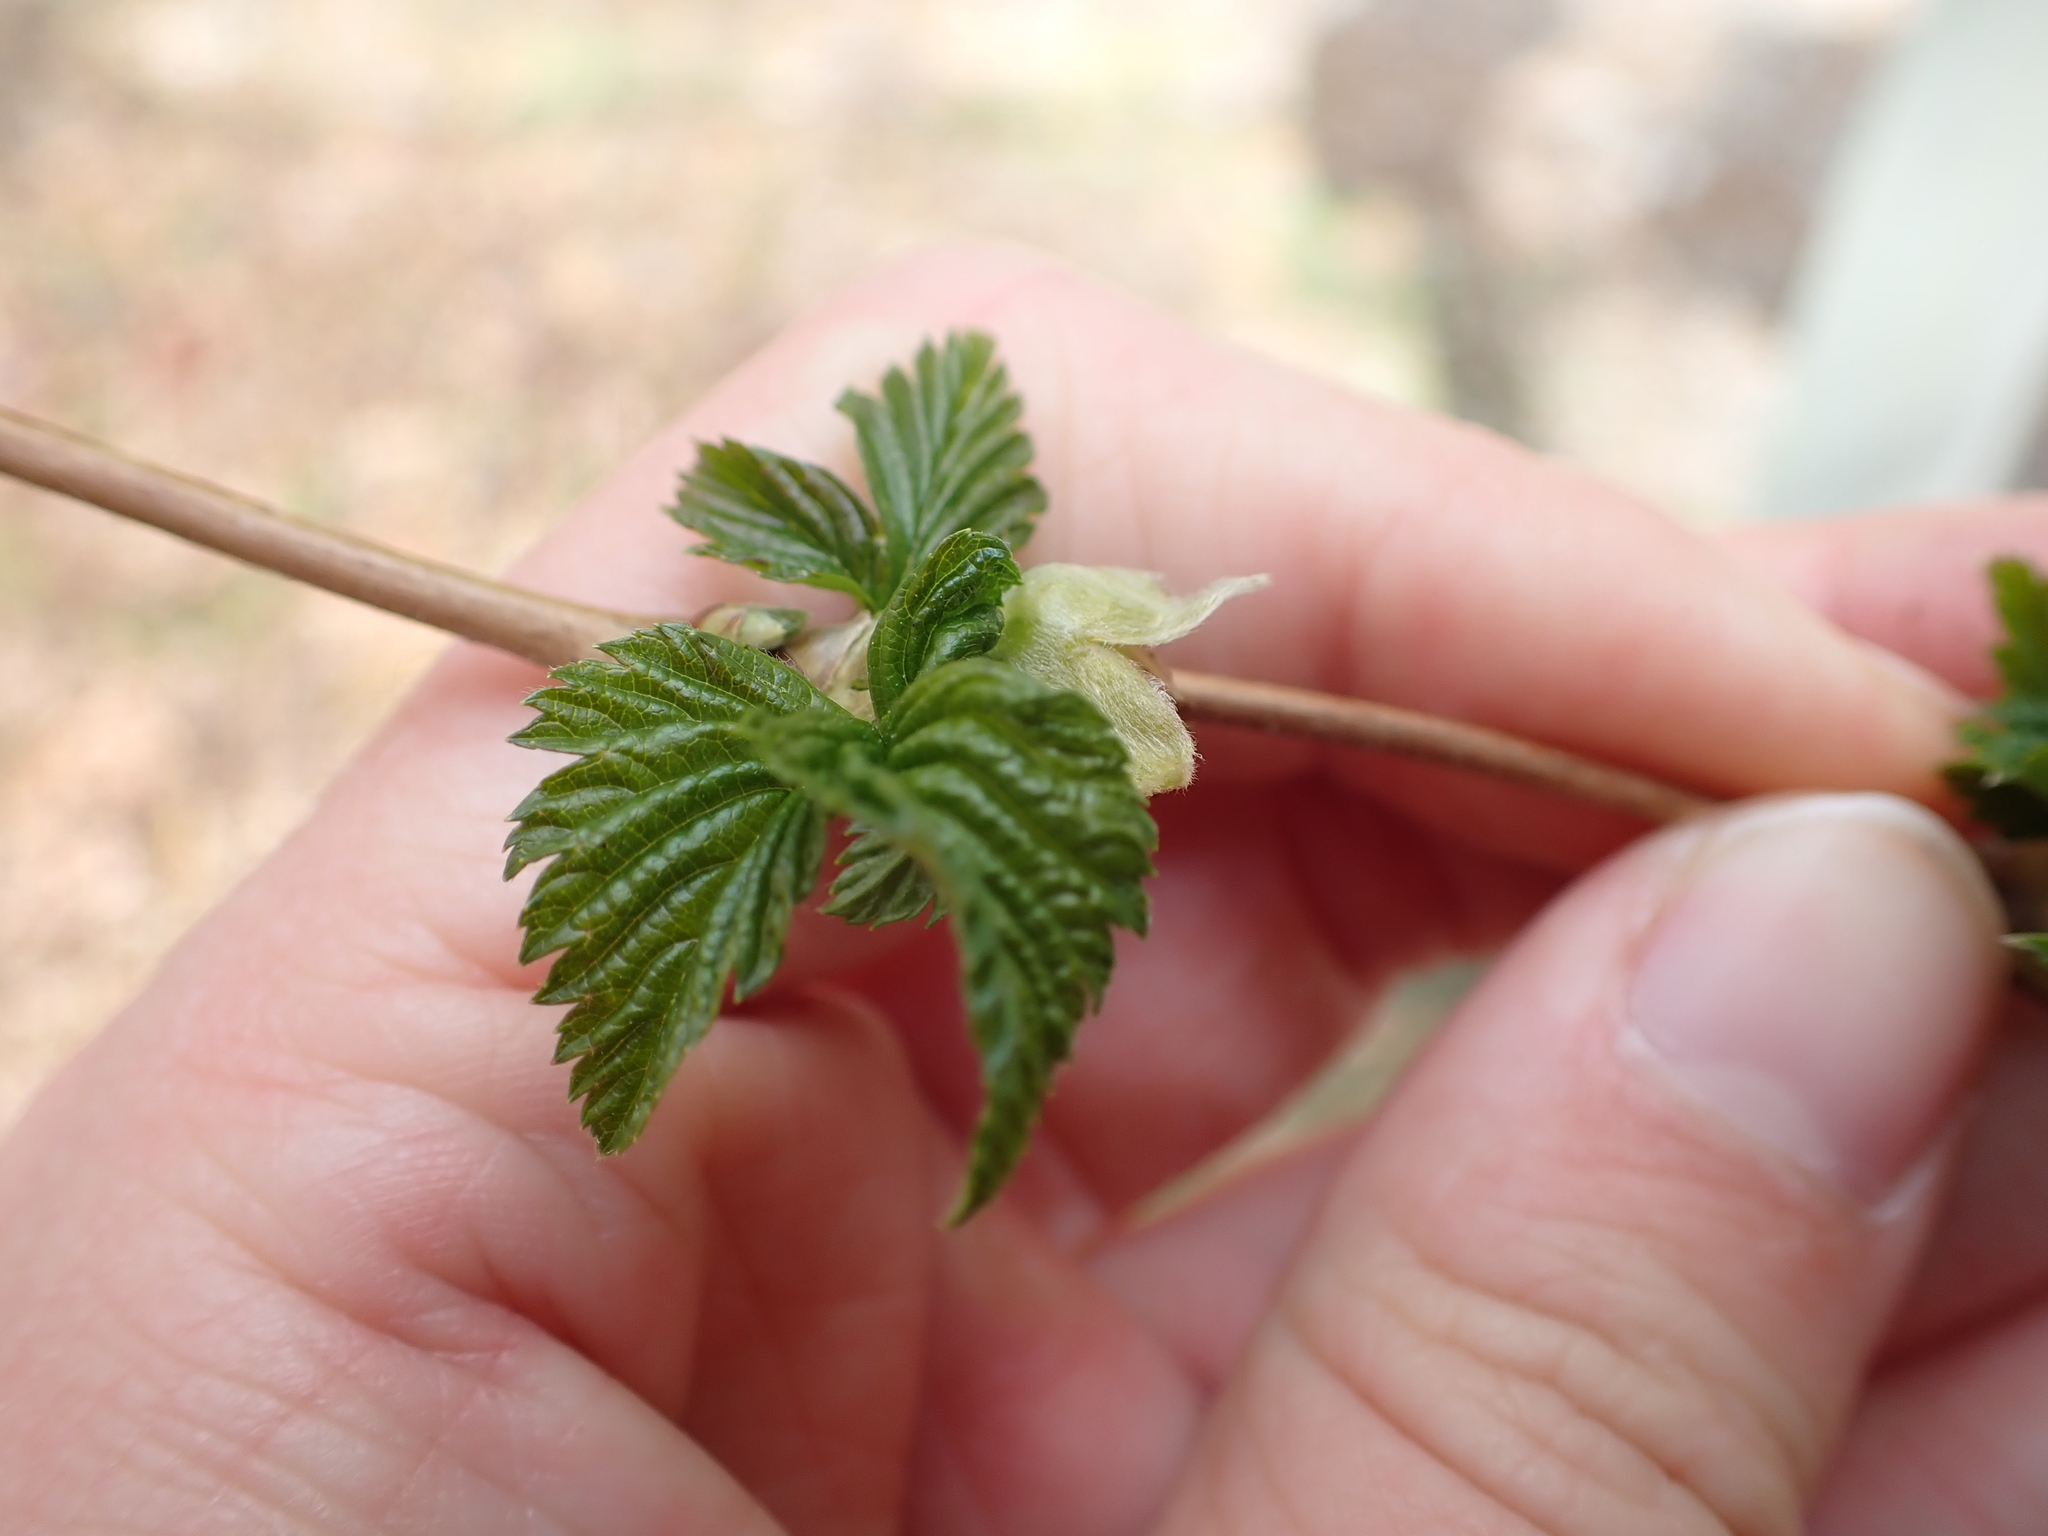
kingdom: Plantae
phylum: Tracheophyta
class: Magnoliopsida
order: Rosales
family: Rosaceae
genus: Rubus
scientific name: Rubus spectabilis
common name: Salmonberry
